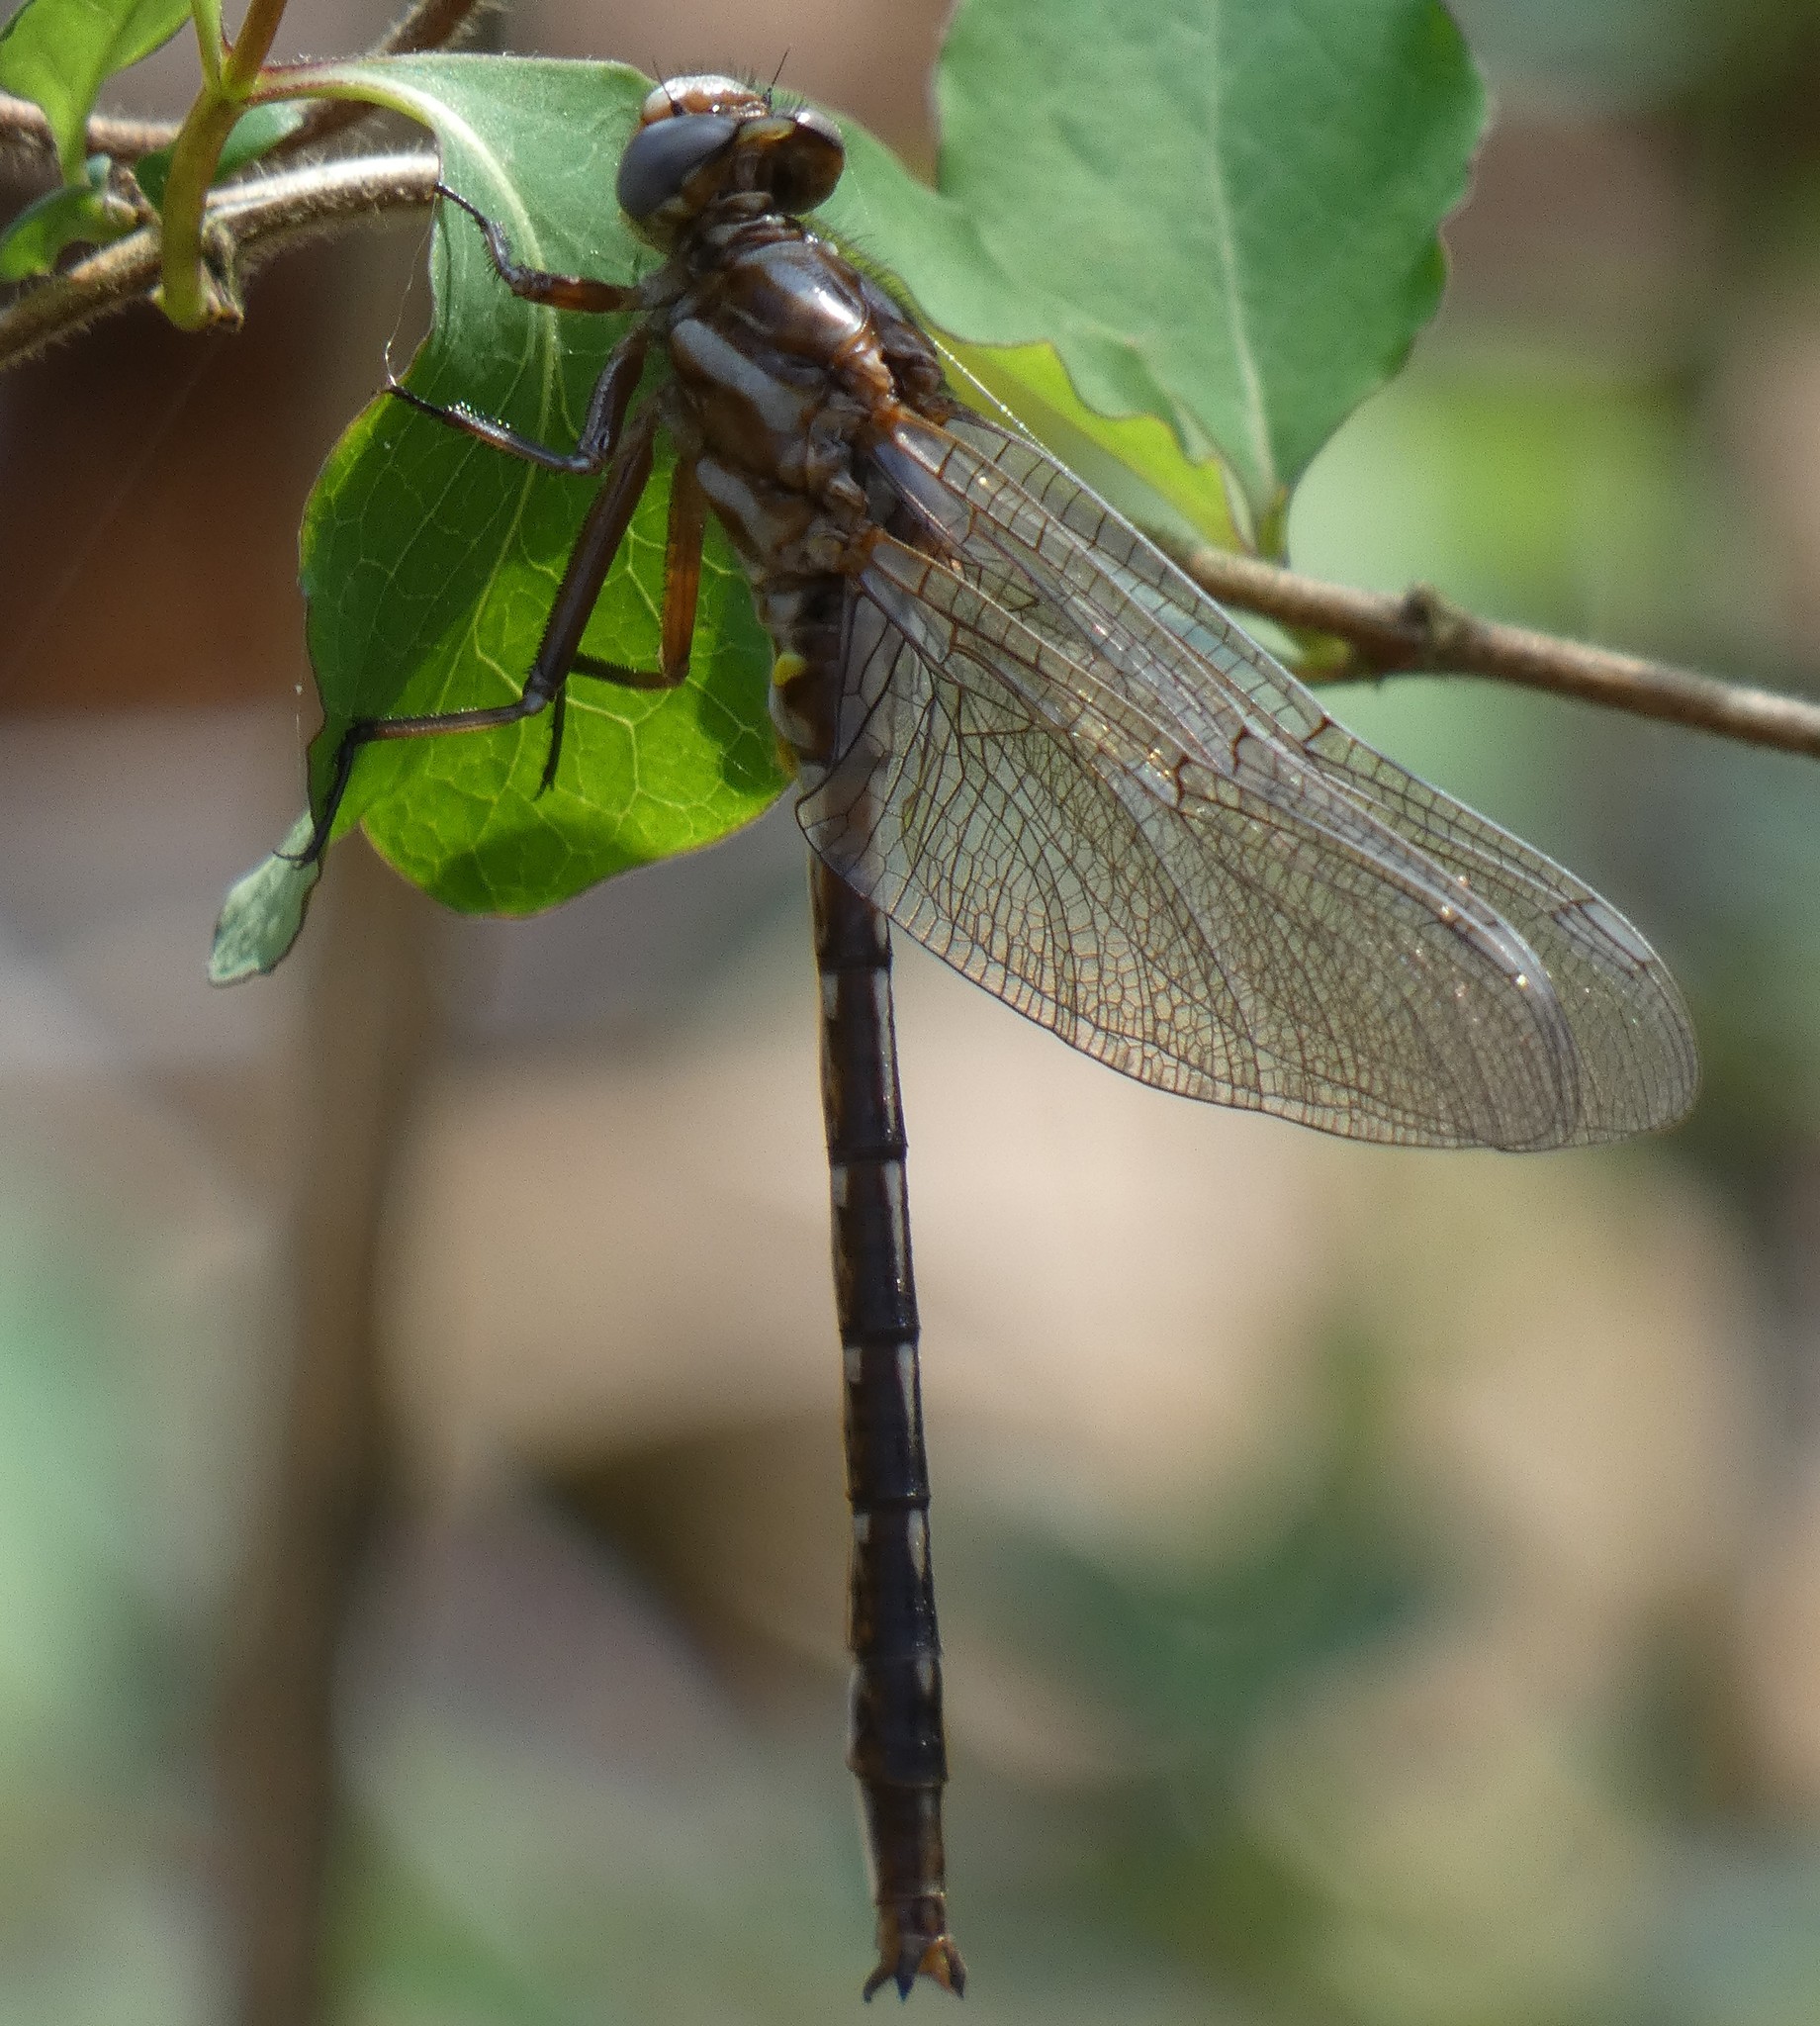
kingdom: Animalia
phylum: Arthropoda
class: Insecta
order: Odonata
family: Gomphidae
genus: Phanogomphus
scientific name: Phanogomphus lividus
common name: Ashy clubtail
